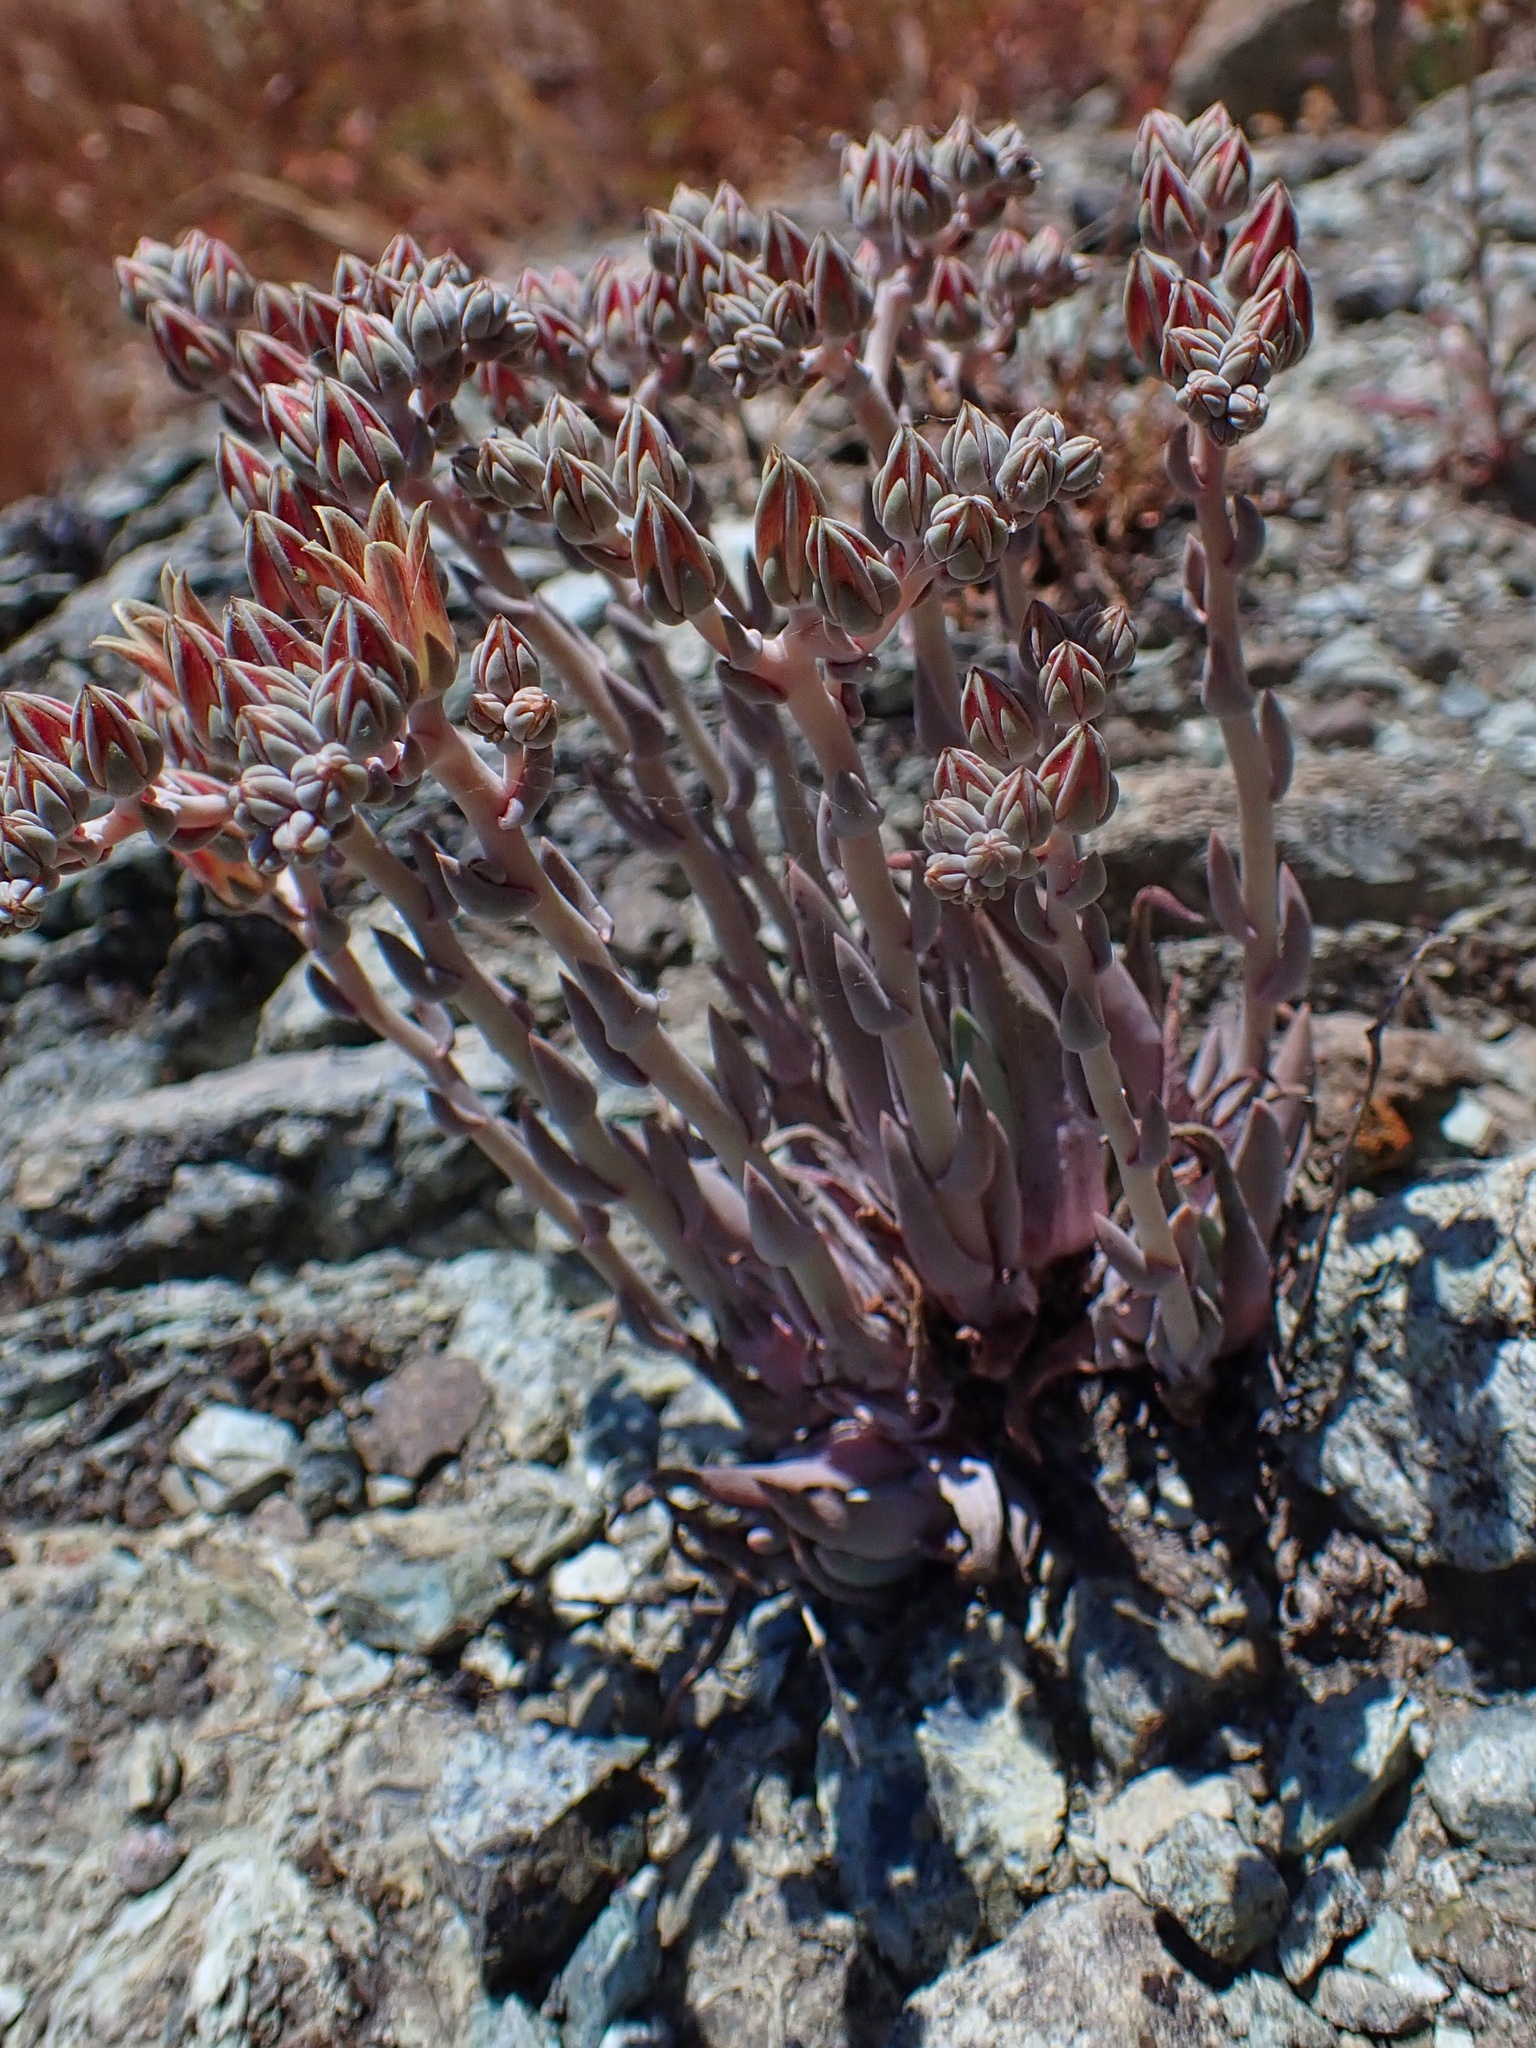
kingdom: Plantae
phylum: Tracheophyta
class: Magnoliopsida
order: Saxifragales
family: Crassulaceae
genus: Dudleya
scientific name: Dudleya abramsii
